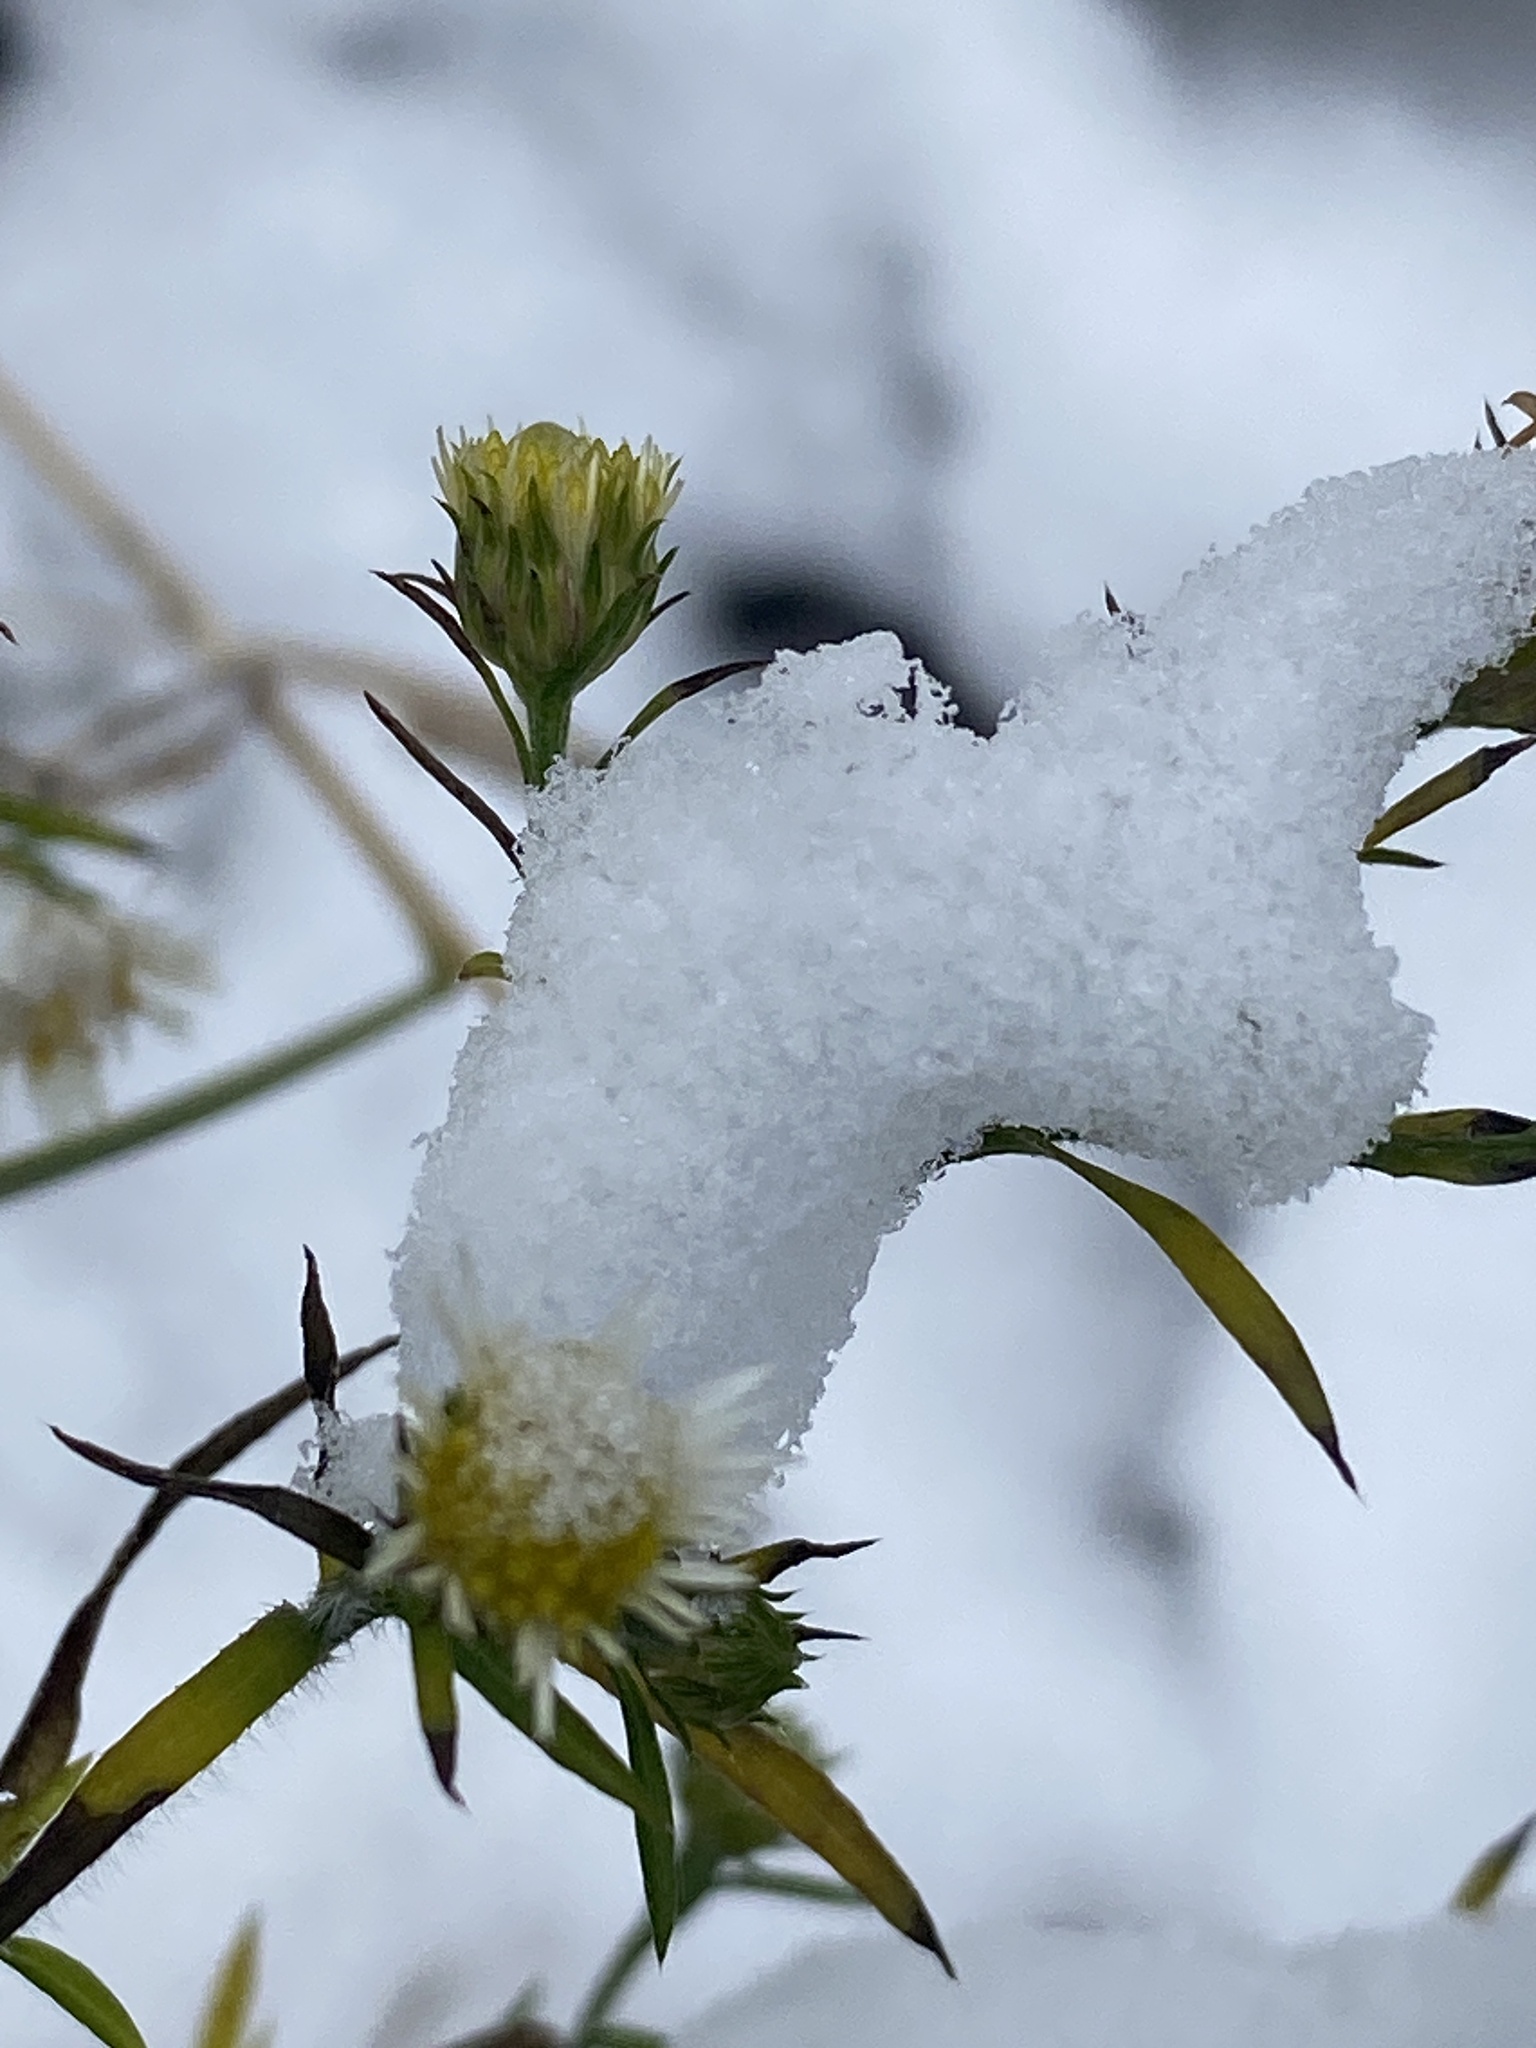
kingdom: Plantae
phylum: Tracheophyta
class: Magnoliopsida
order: Asterales
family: Asteraceae
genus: Symphyotrichum
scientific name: Symphyotrichum pilosum
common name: Awl aster
